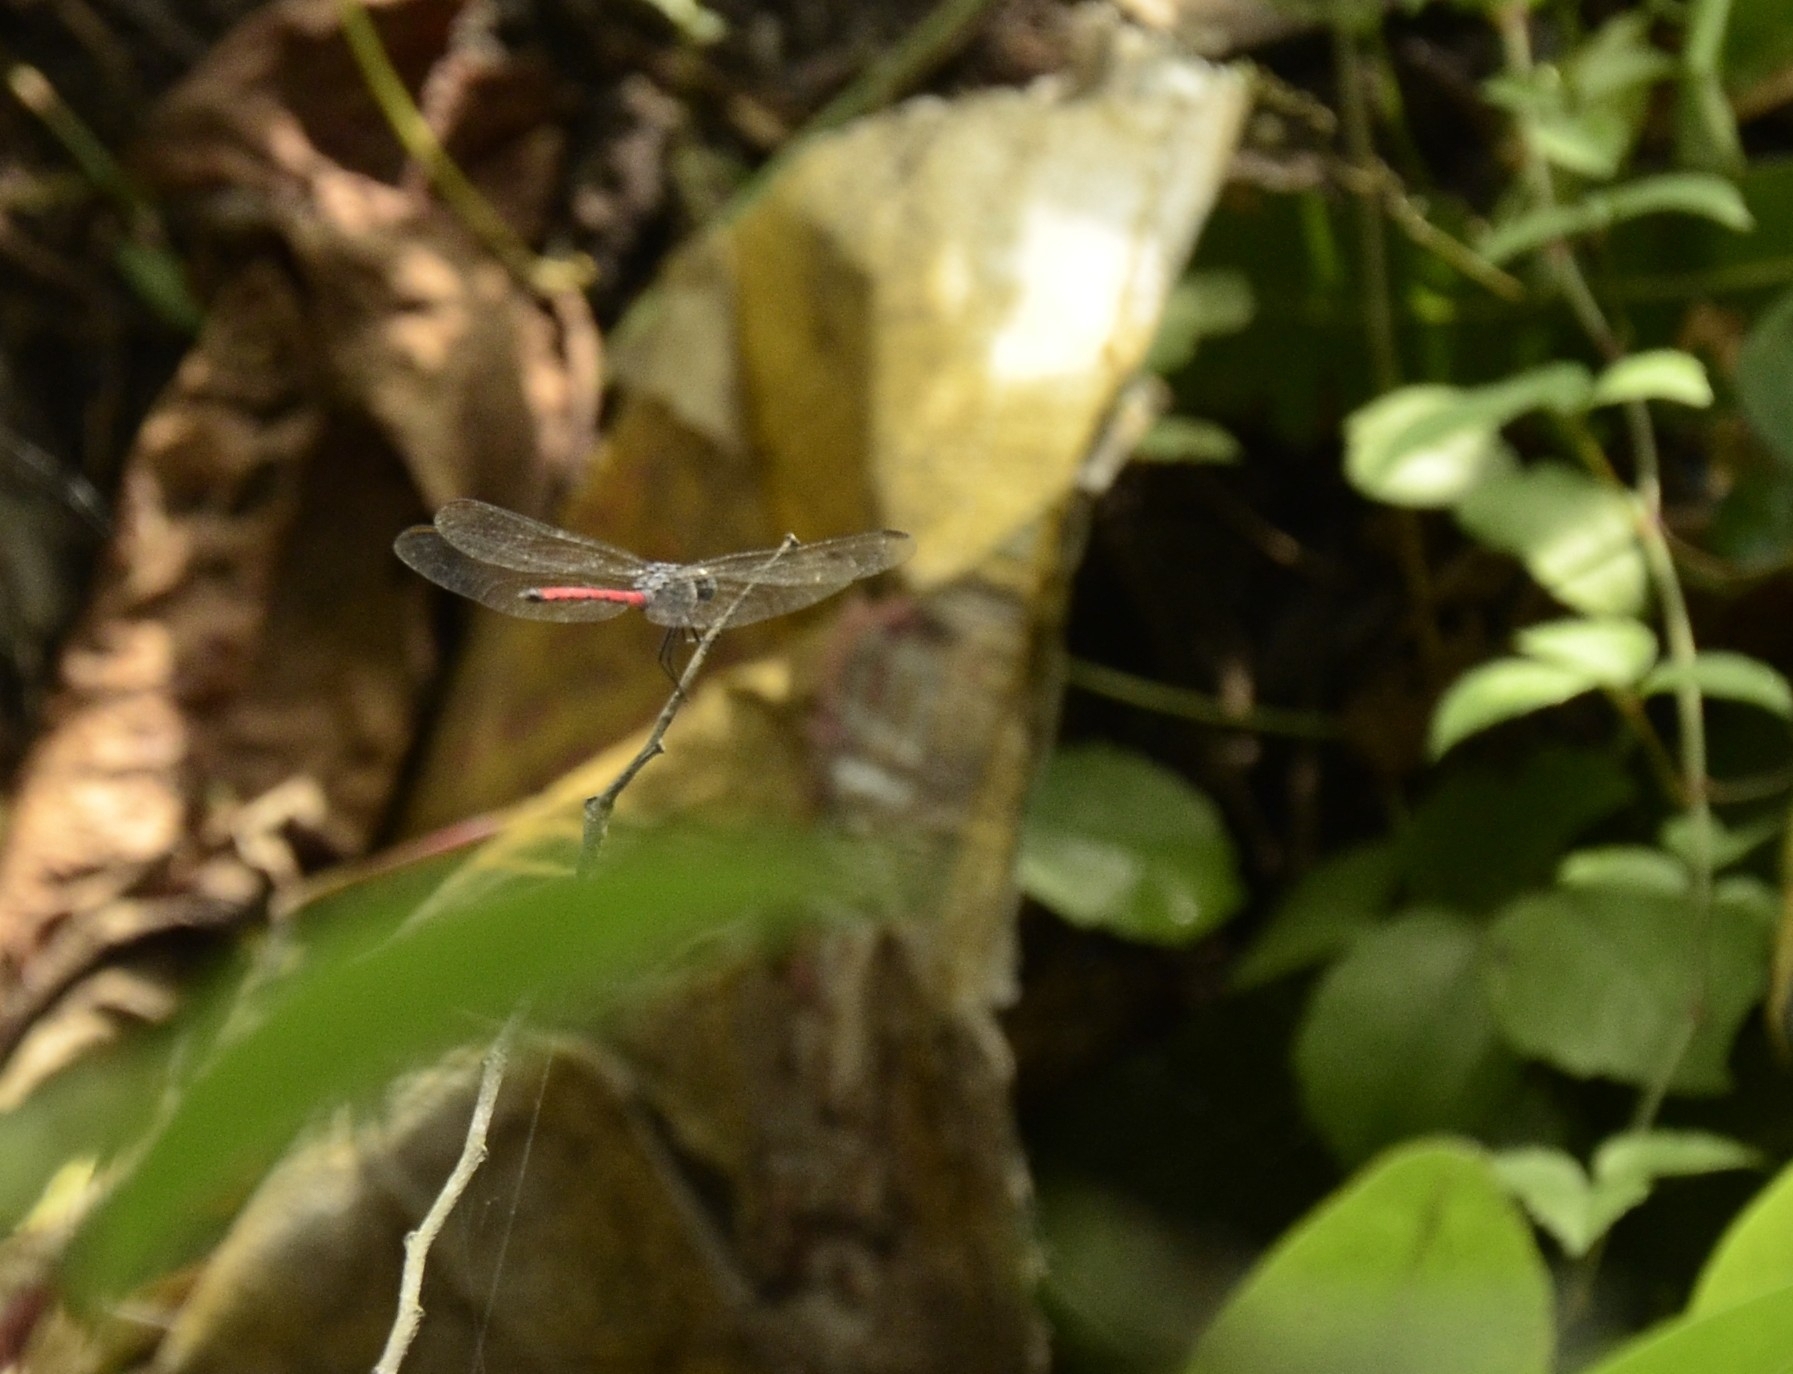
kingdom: Animalia
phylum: Arthropoda
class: Insecta
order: Odonata
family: Libellulidae
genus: Lathrecista
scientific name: Lathrecista asiatica
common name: Scarlet grenadier
